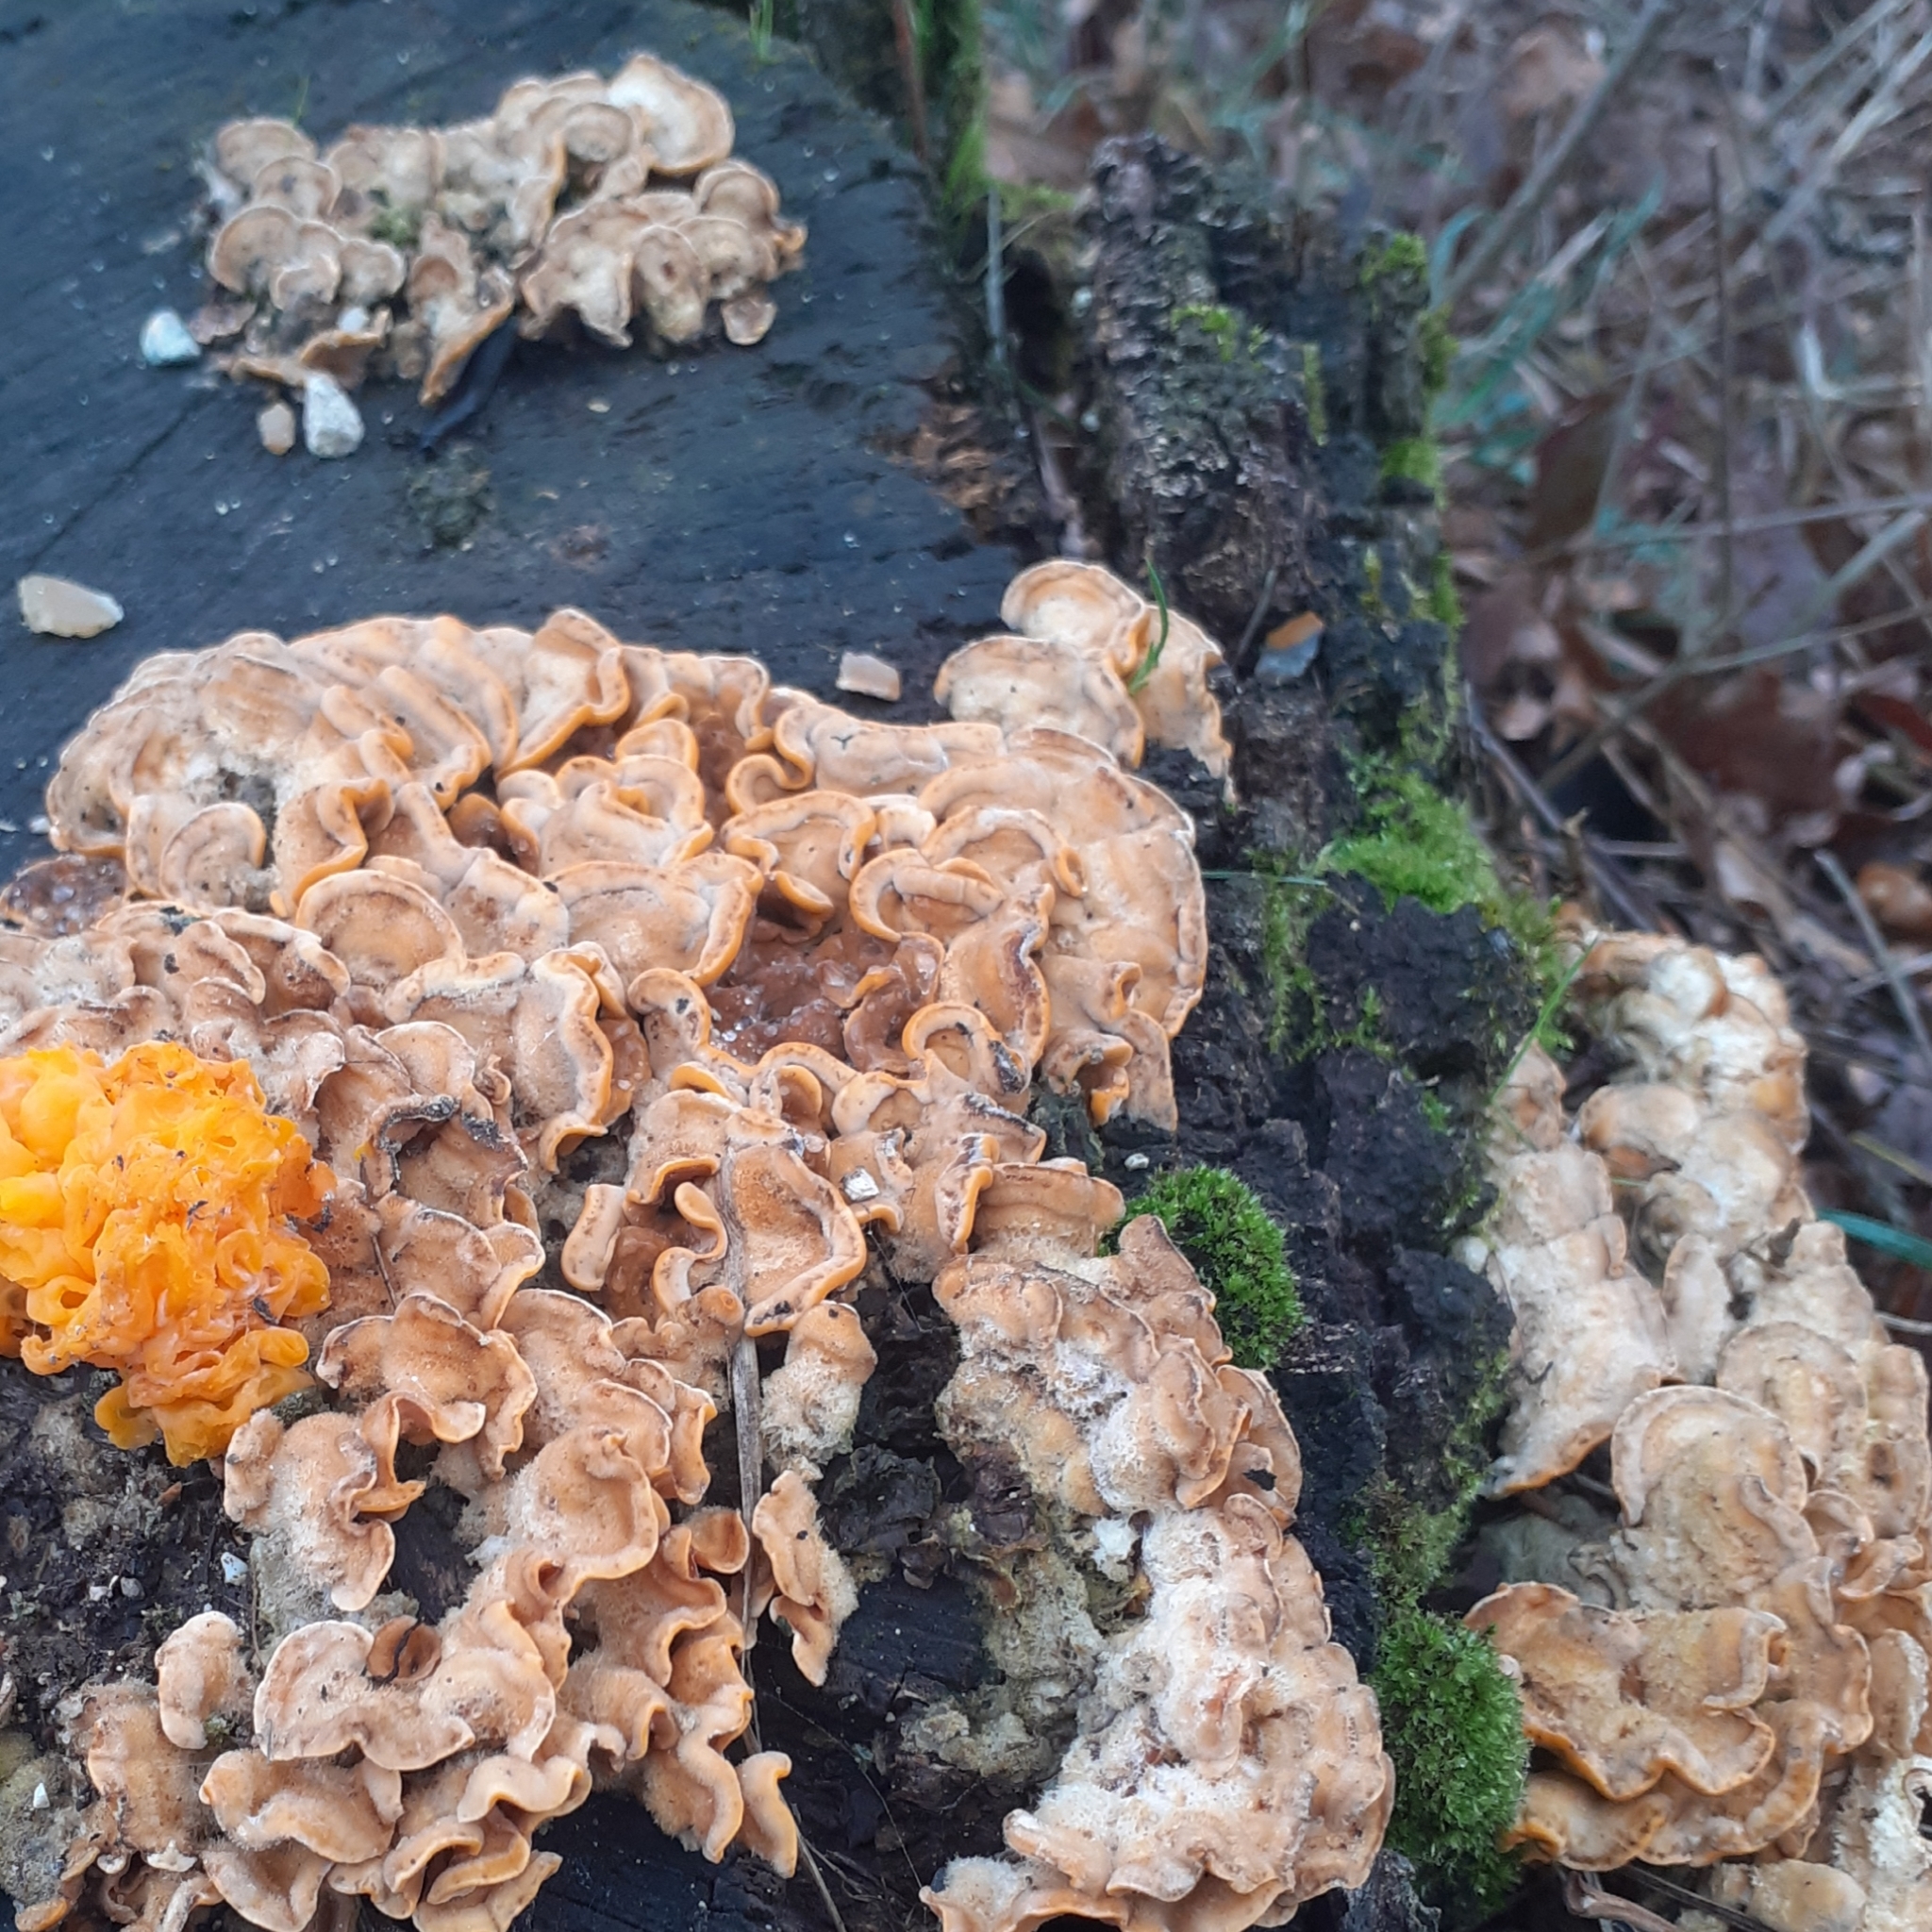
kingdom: Fungi
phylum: Basidiomycota
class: Agaricomycetes
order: Russulales
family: Stereaceae
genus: Stereum
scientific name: Stereum hirsutum
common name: Hairy curtain crust
